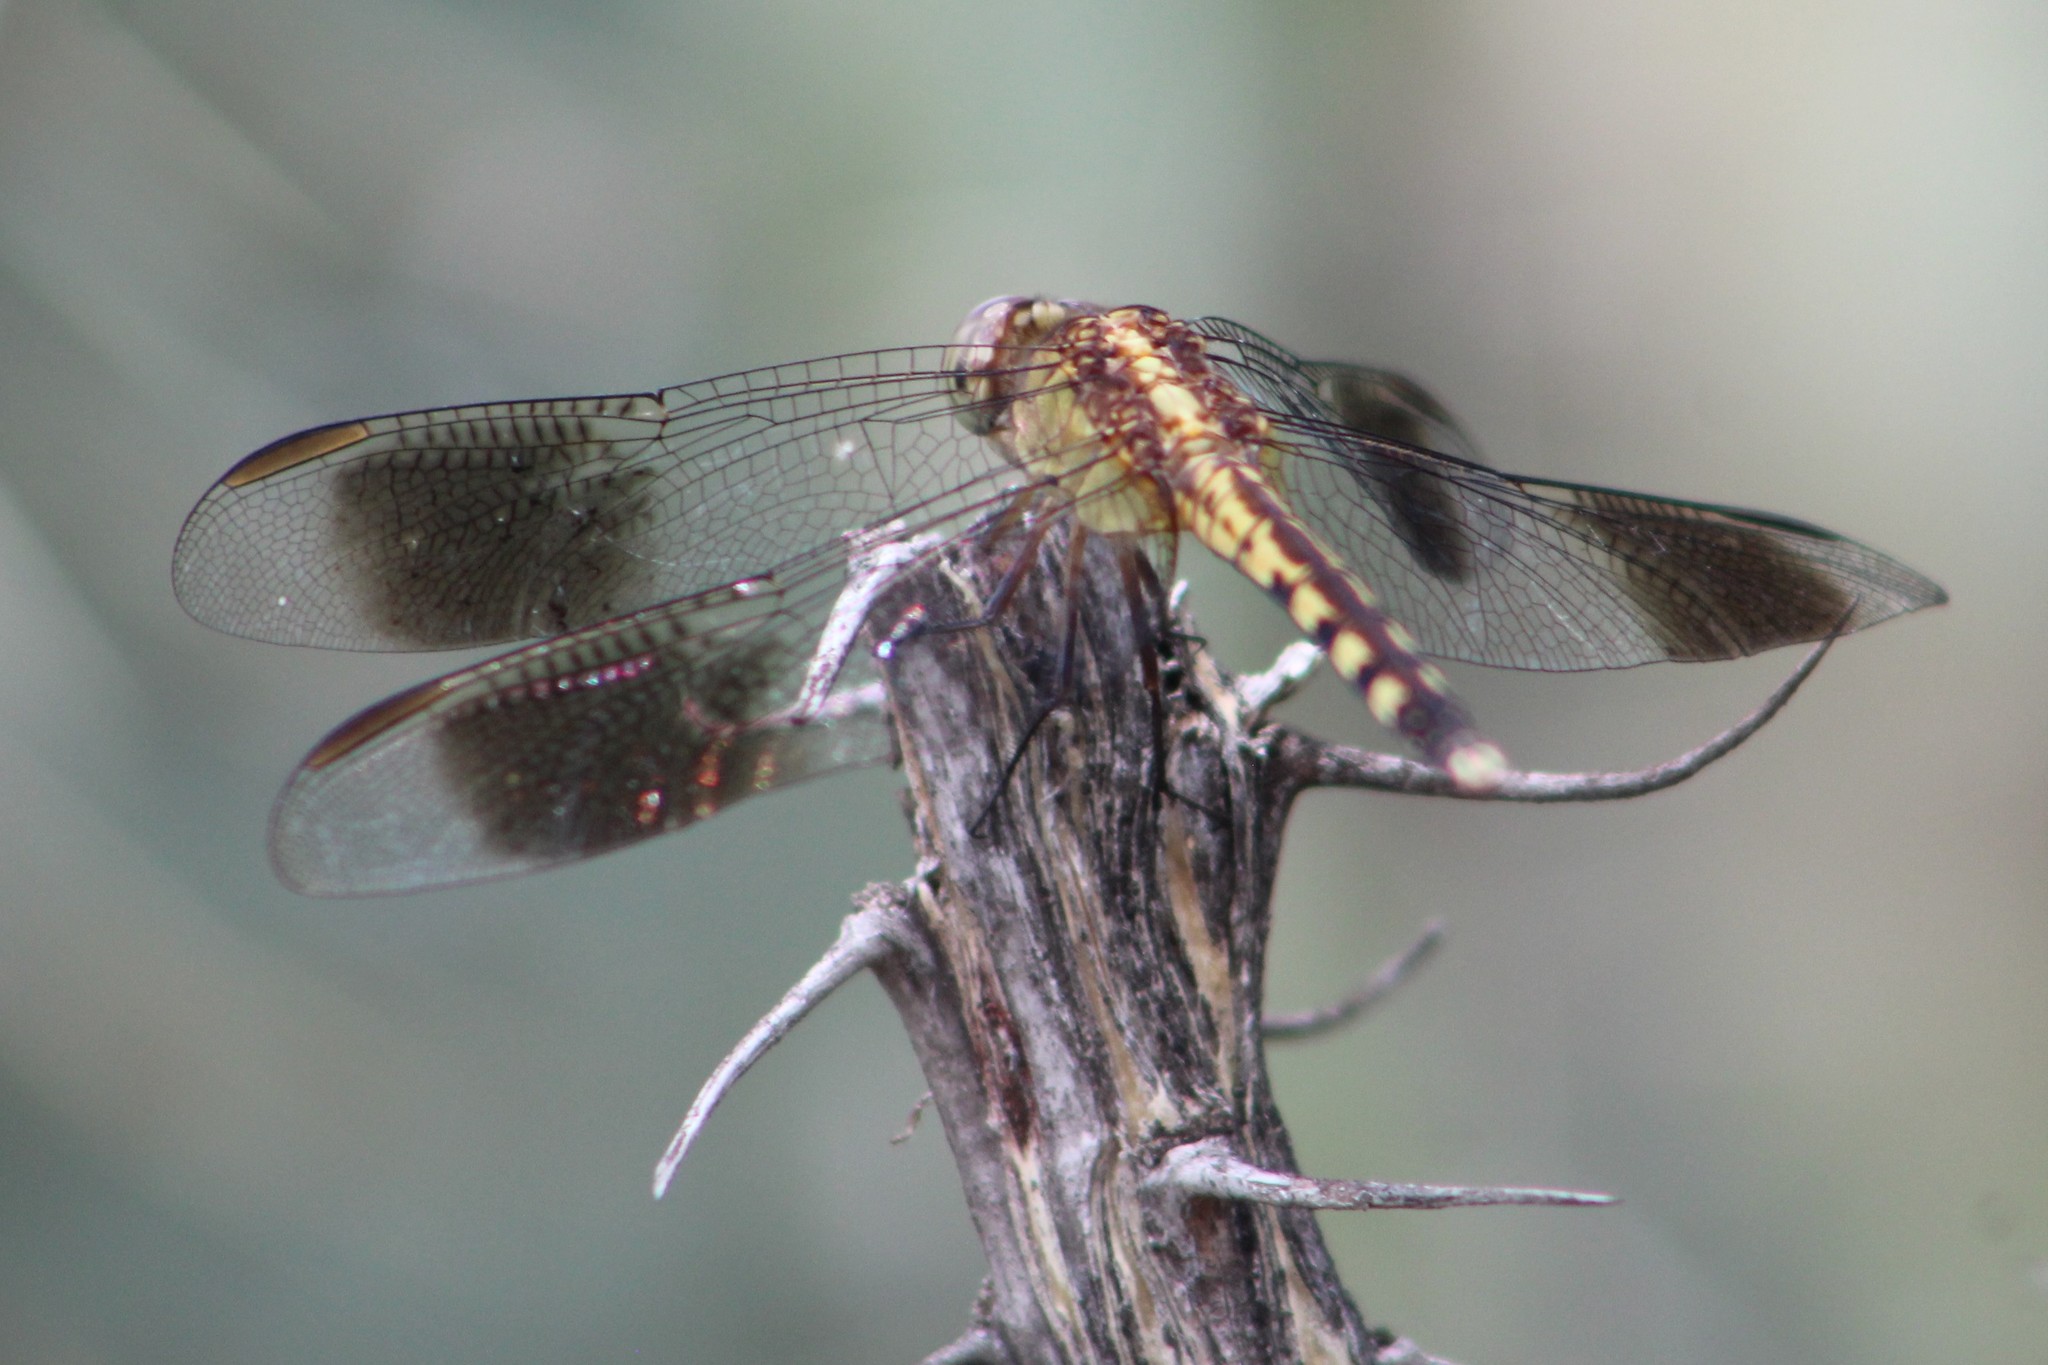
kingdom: Animalia
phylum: Arthropoda
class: Insecta
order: Odonata
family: Libellulidae
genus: Erythrodiplax
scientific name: Erythrodiplax umbrata
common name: Band-winged dragonlet
